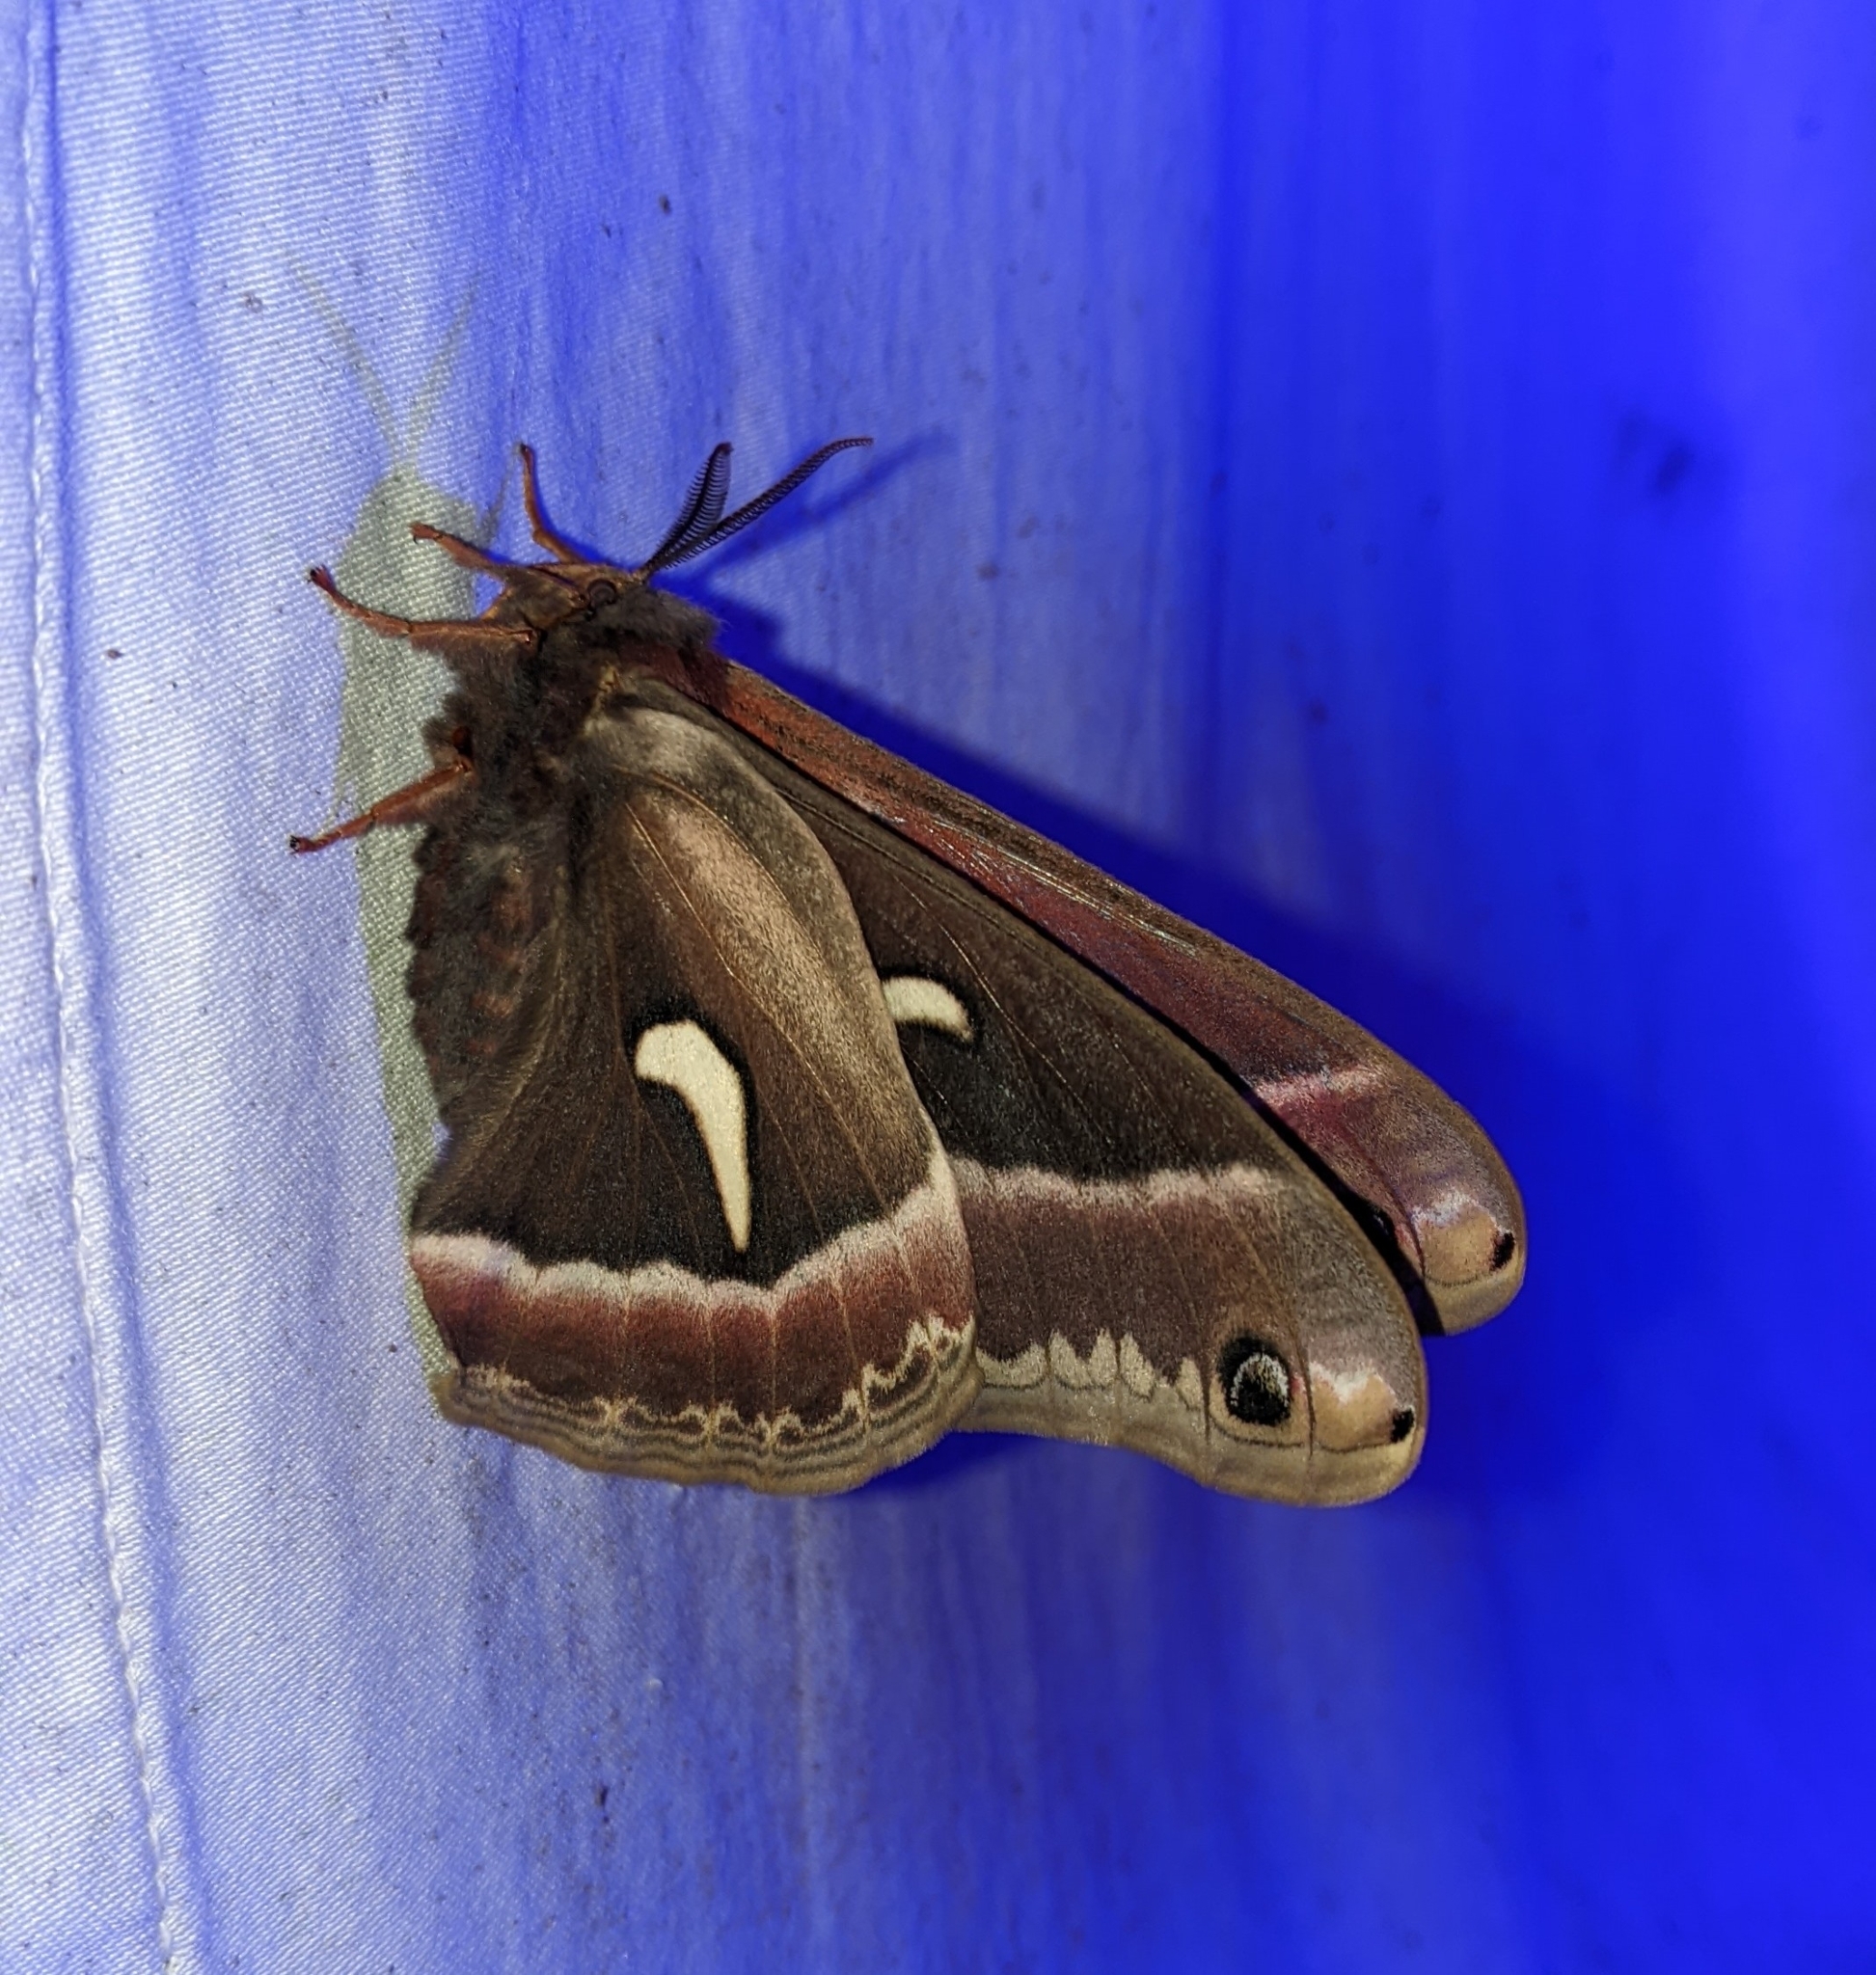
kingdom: Animalia
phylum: Arthropoda
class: Insecta
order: Lepidoptera
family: Saturniidae
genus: Hyalophora
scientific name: Hyalophora euryalus
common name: Ceanothus silkmoth
